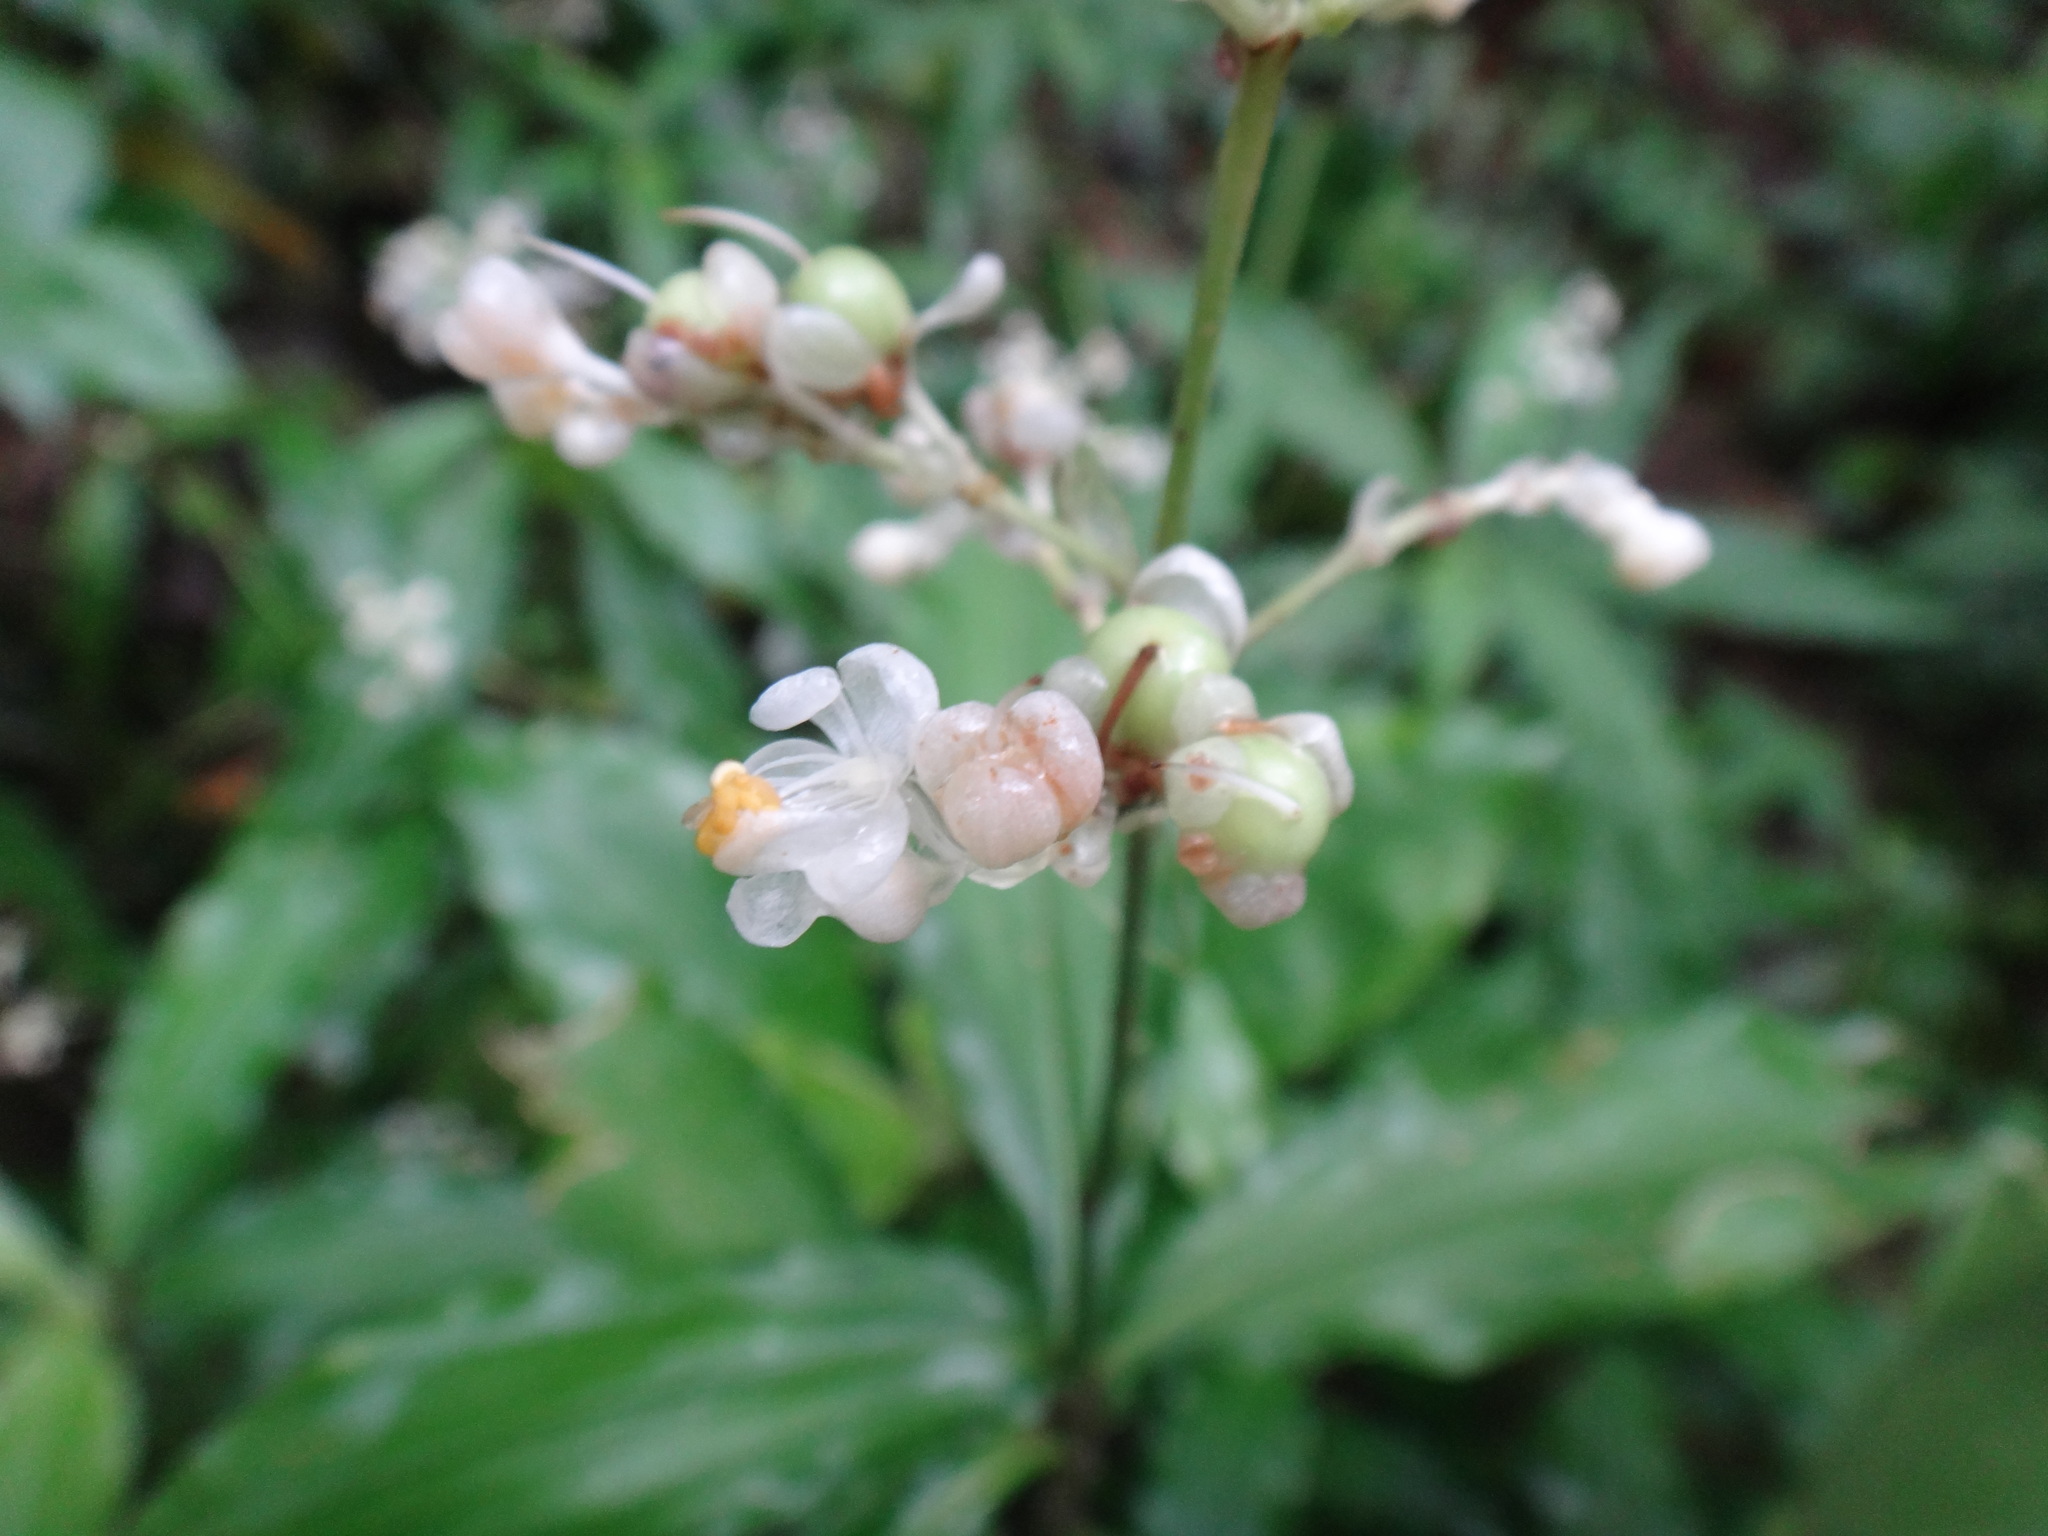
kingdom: Plantae
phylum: Tracheophyta
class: Liliopsida
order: Commelinales
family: Commelinaceae
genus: Pollia
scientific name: Pollia miranda
